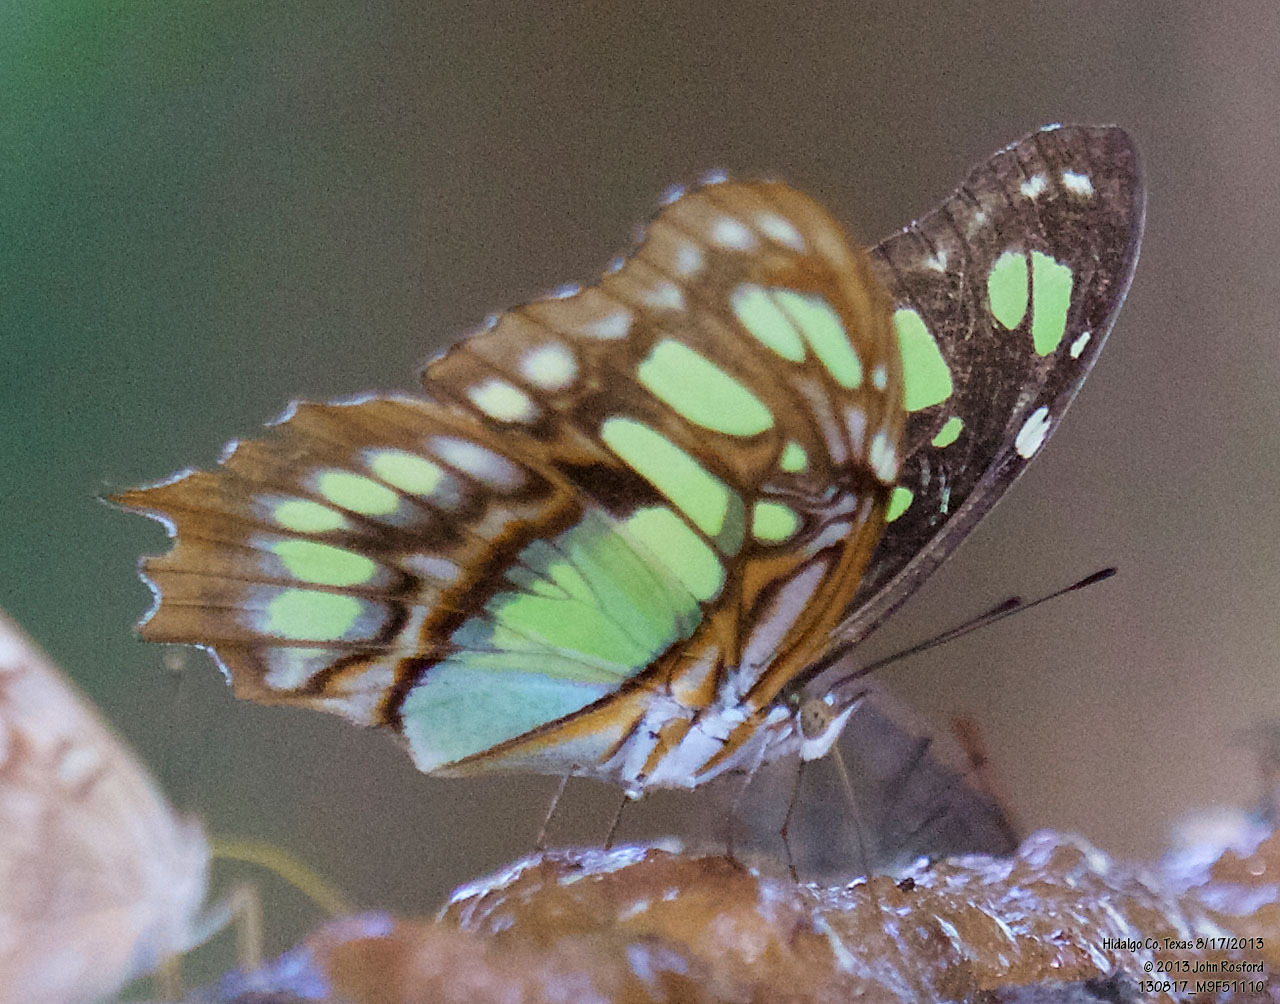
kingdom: Animalia
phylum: Arthropoda
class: Insecta
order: Lepidoptera
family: Nymphalidae
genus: Siproeta
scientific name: Siproeta stelenes
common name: Malachite
